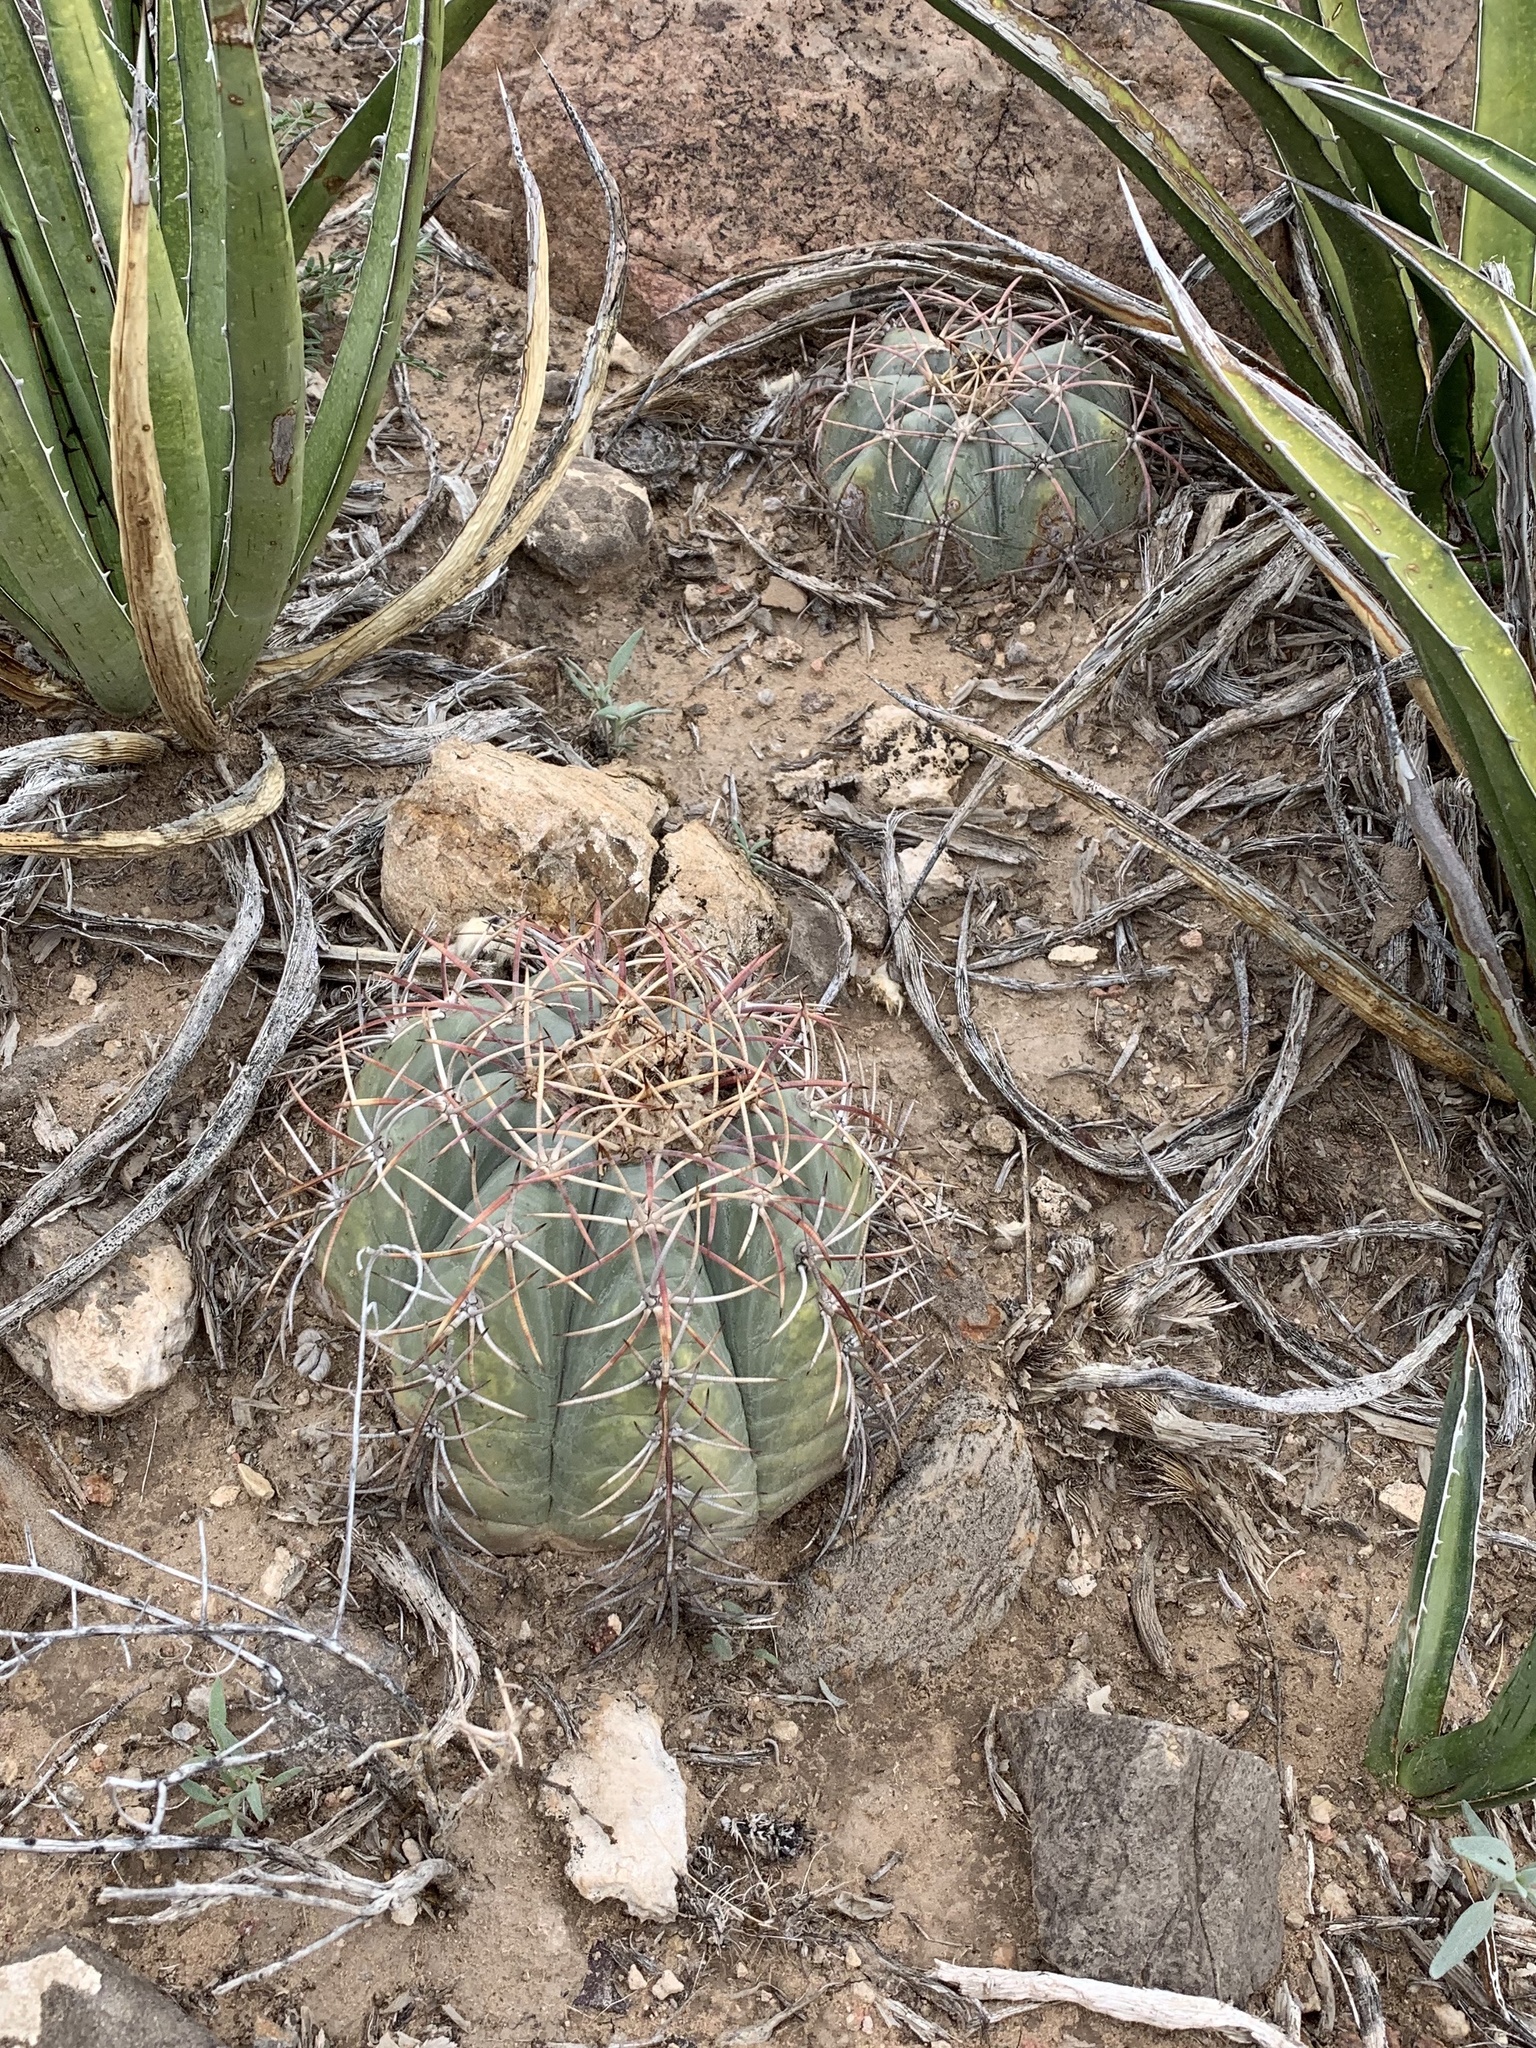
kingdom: Plantae
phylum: Tracheophyta
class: Magnoliopsida
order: Caryophyllales
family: Cactaceae
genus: Echinocactus
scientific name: Echinocactus horizonthalonius
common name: Devilshead
